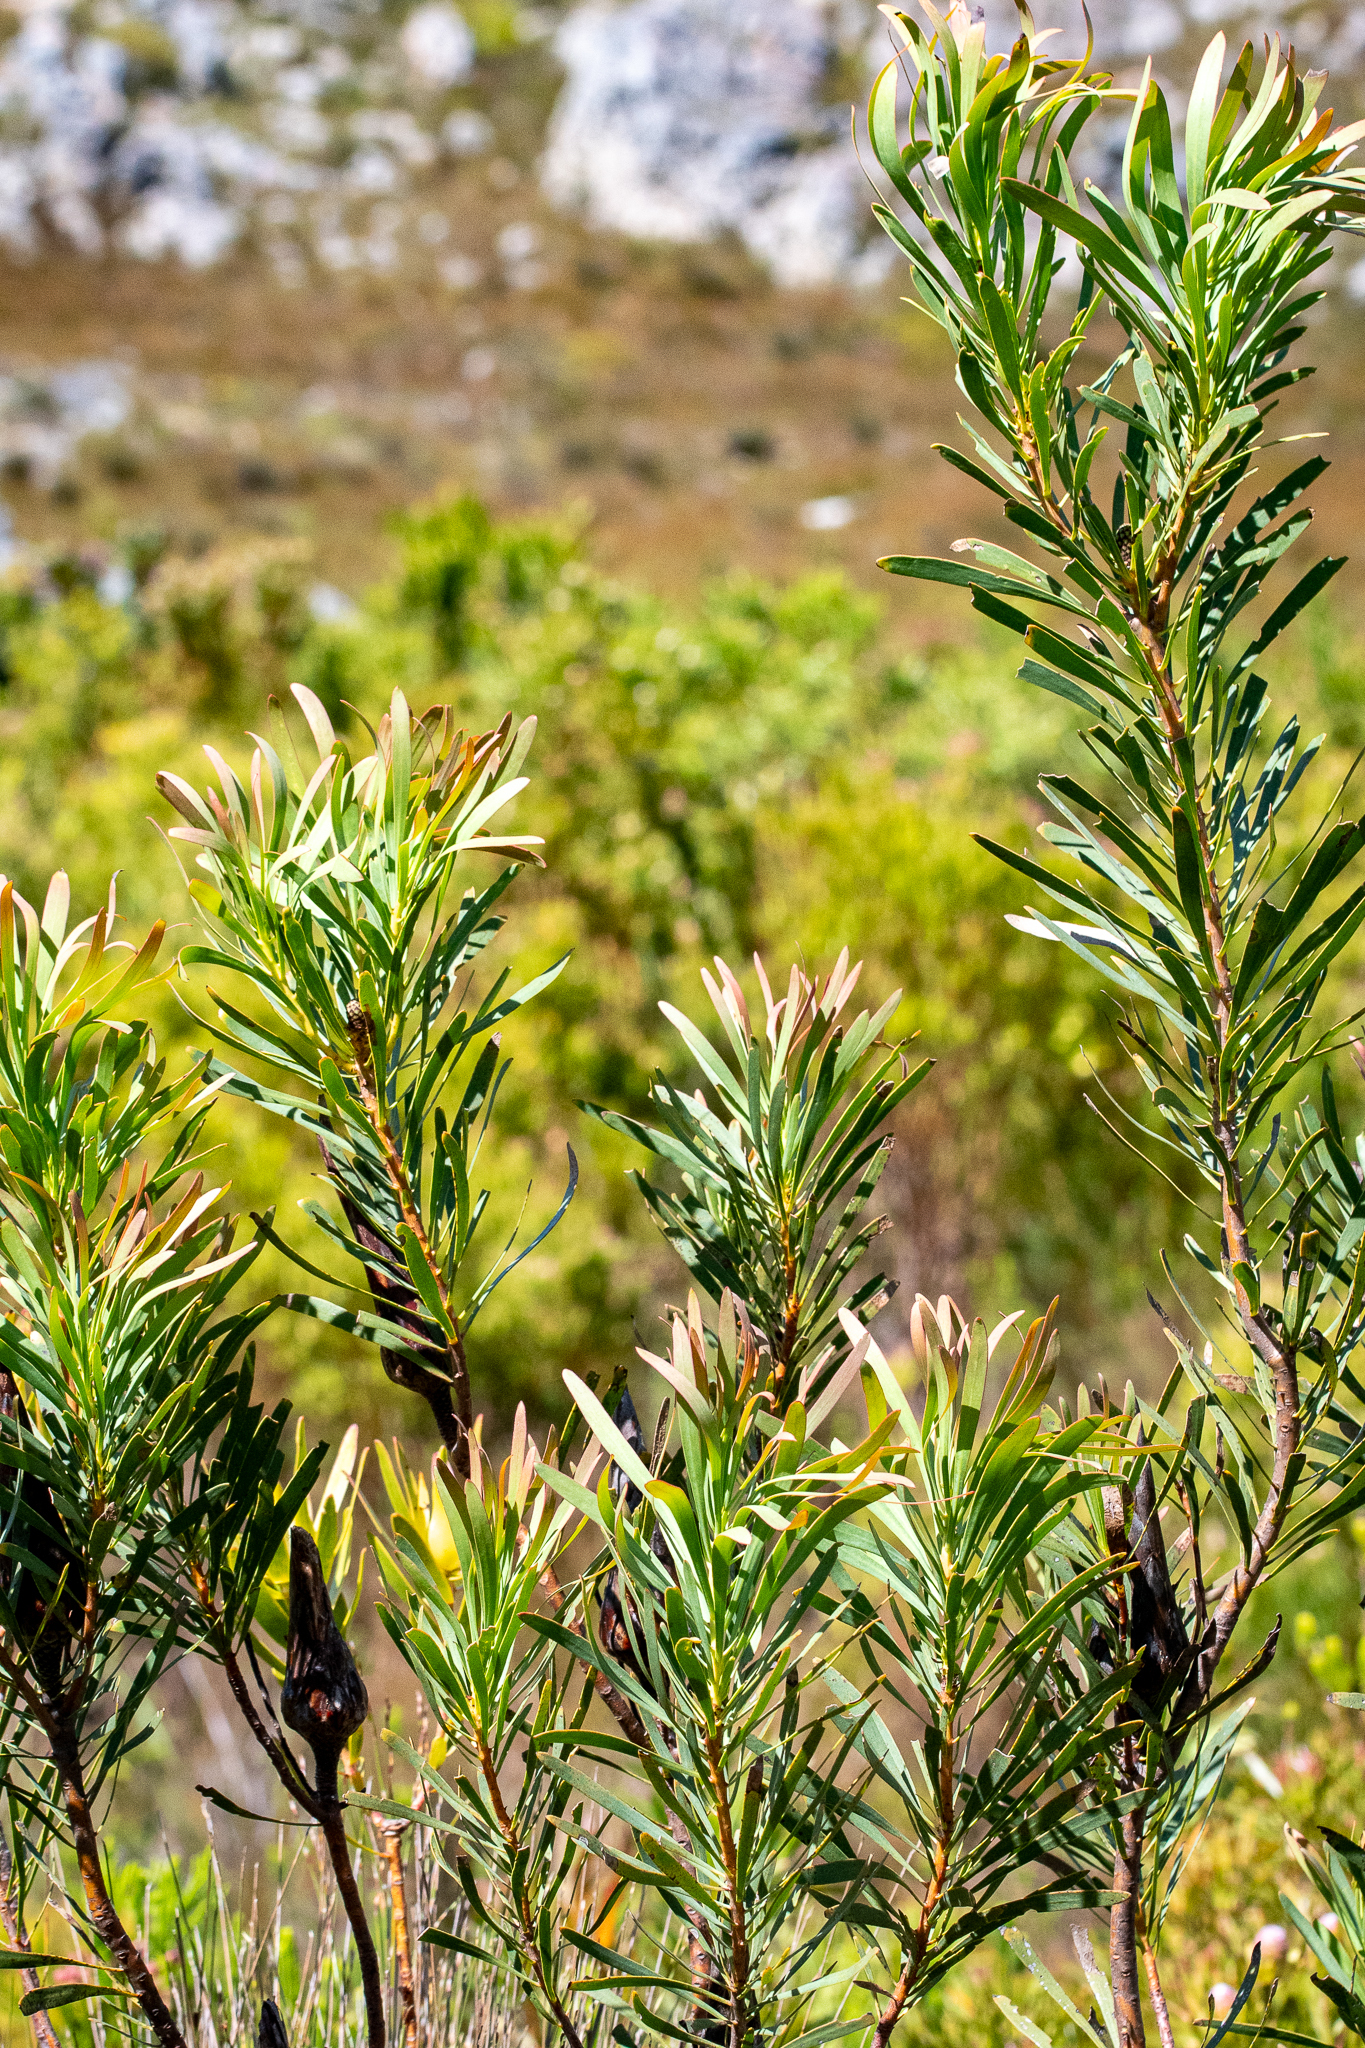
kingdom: Plantae
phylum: Tracheophyta
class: Magnoliopsida
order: Proteales
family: Proteaceae
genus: Protea
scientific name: Protea repens
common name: Sugarbush
